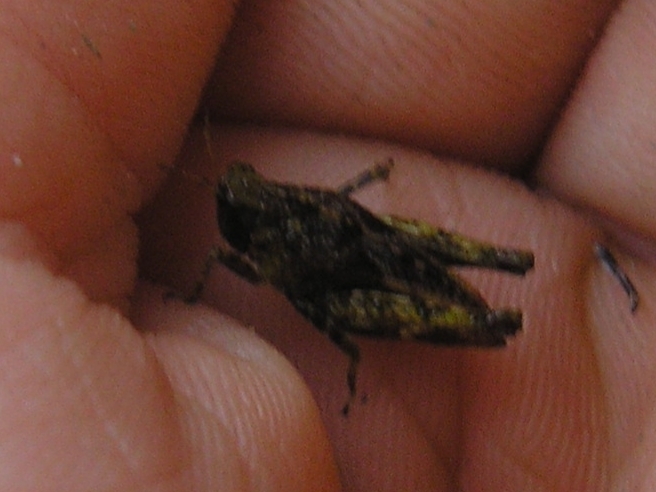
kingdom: Animalia
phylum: Arthropoda
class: Insecta
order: Orthoptera
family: Tetrigidae
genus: Tetrix
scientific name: Tetrix undulata
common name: Common groundhopper
